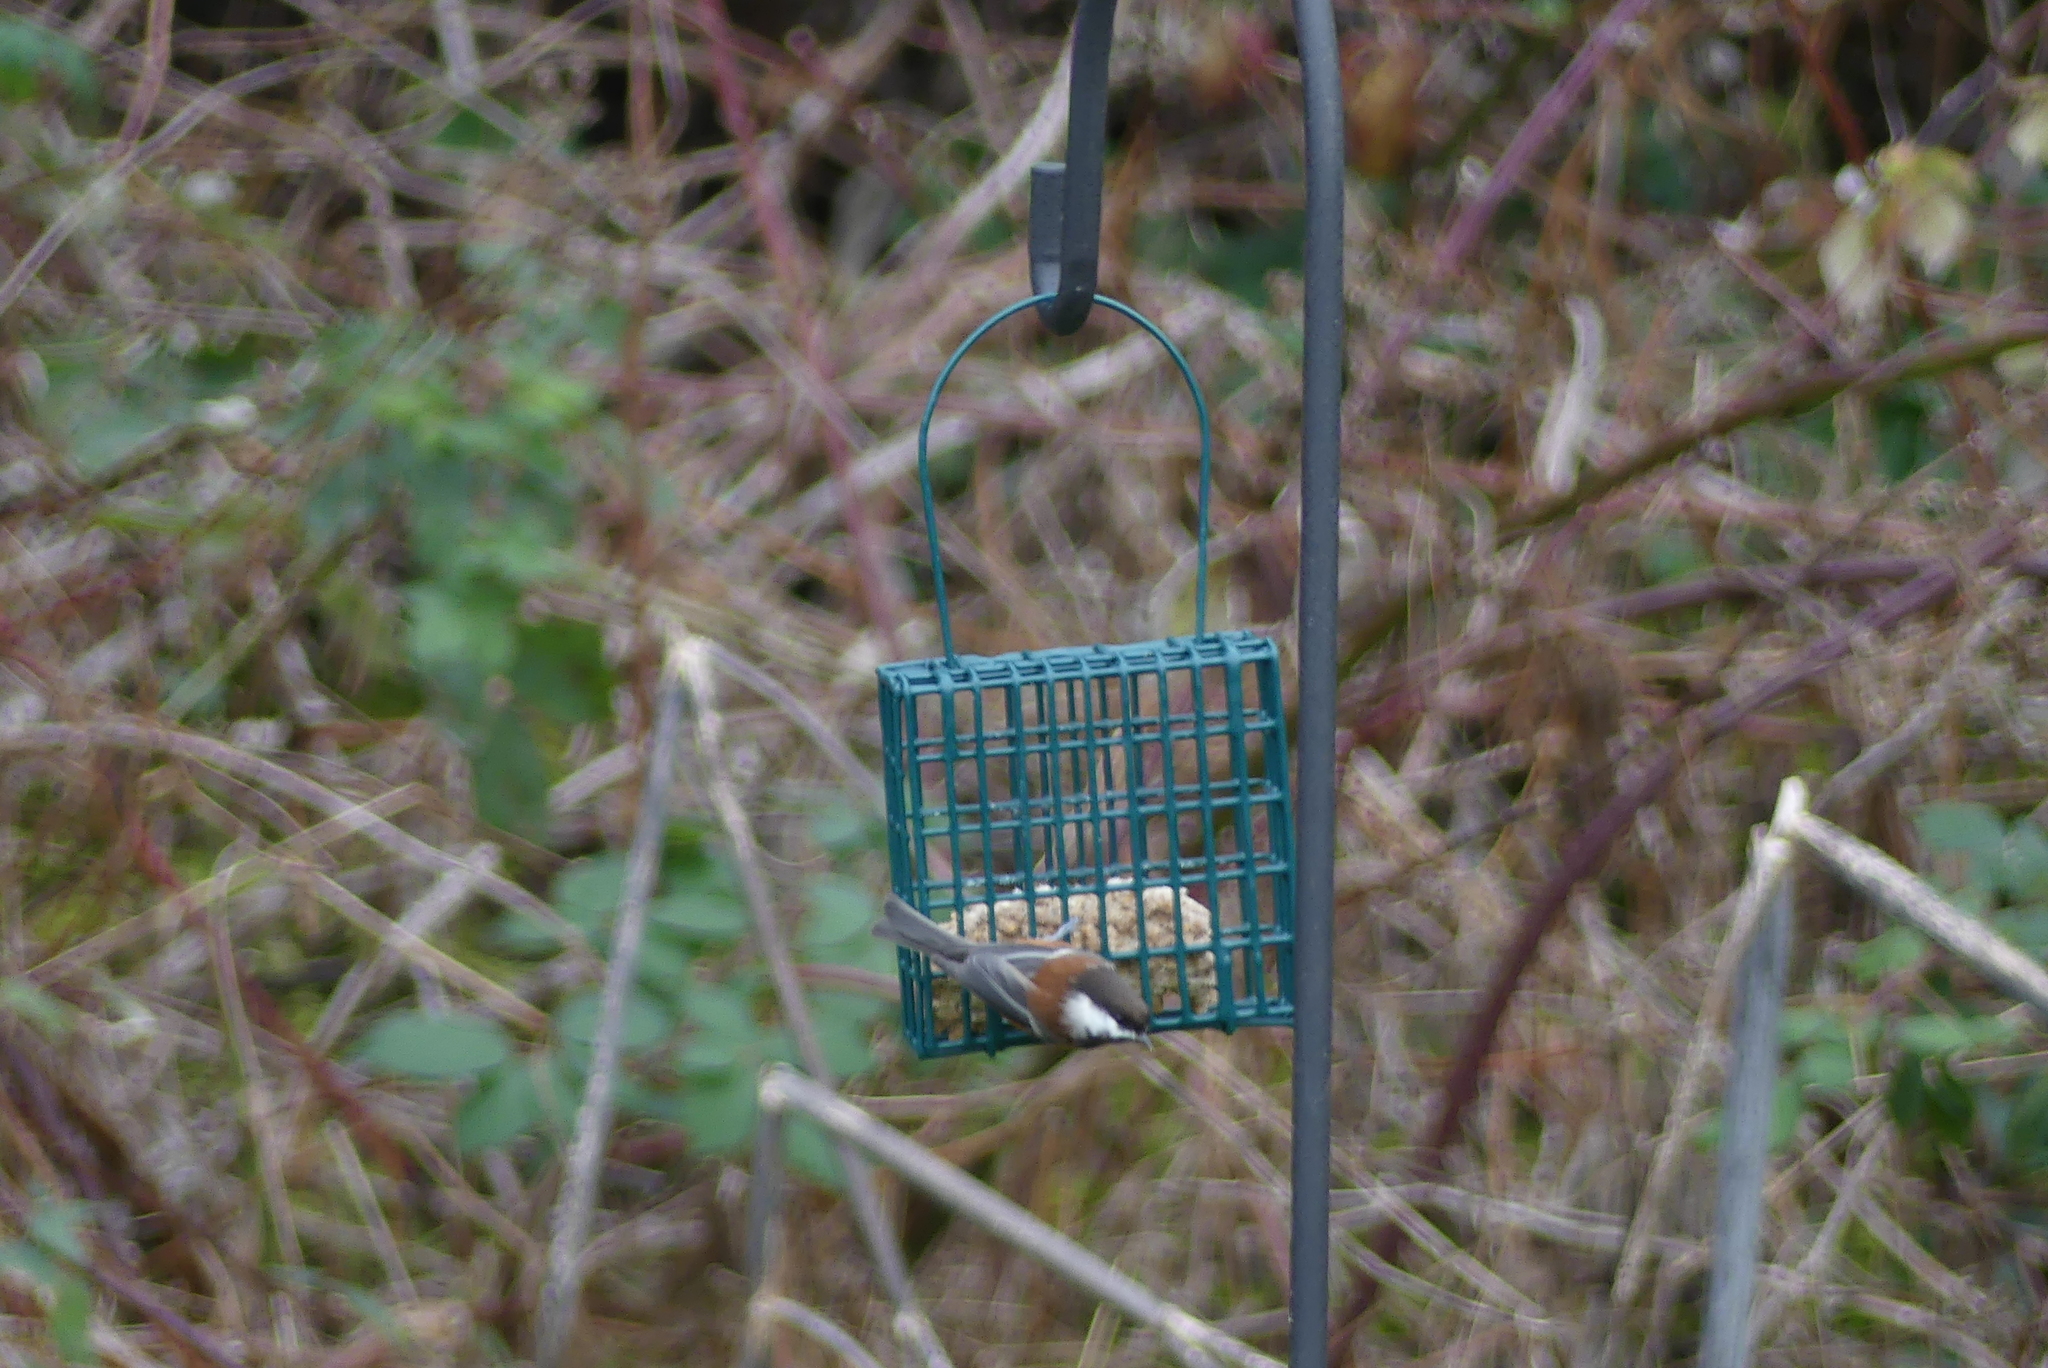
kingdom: Animalia
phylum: Chordata
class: Aves
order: Passeriformes
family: Paridae
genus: Poecile
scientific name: Poecile rufescens
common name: Chestnut-backed chickadee
